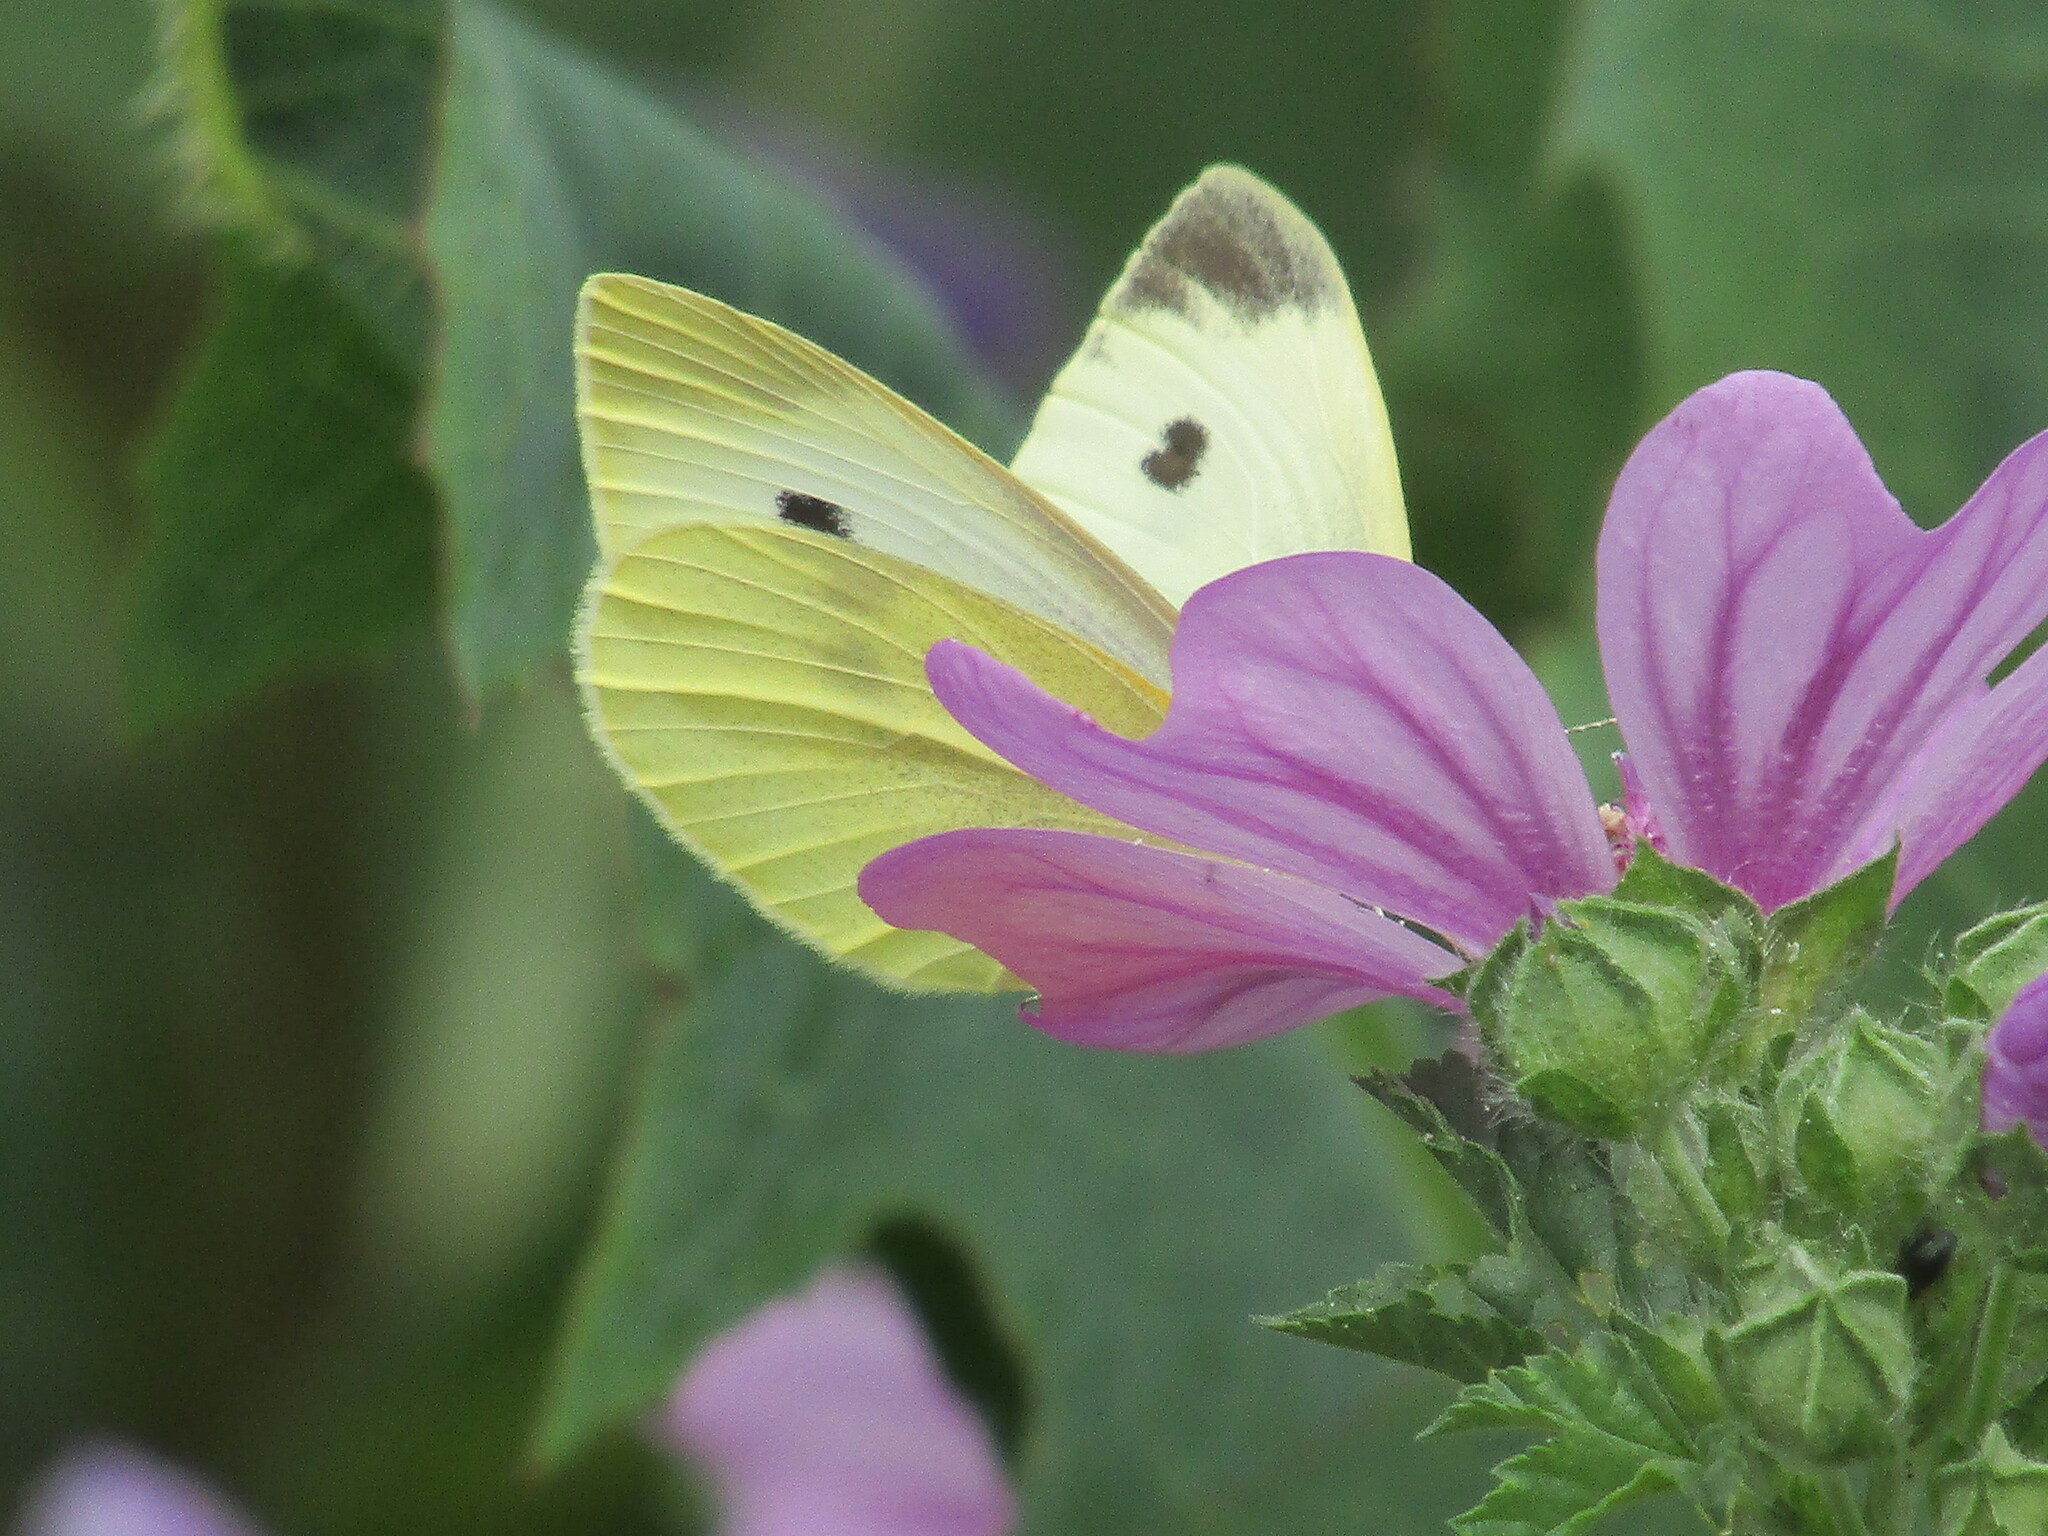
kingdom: Animalia
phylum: Arthropoda
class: Insecta
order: Lepidoptera
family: Pieridae
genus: Pieris
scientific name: Pieris mannii
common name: Southern small white
